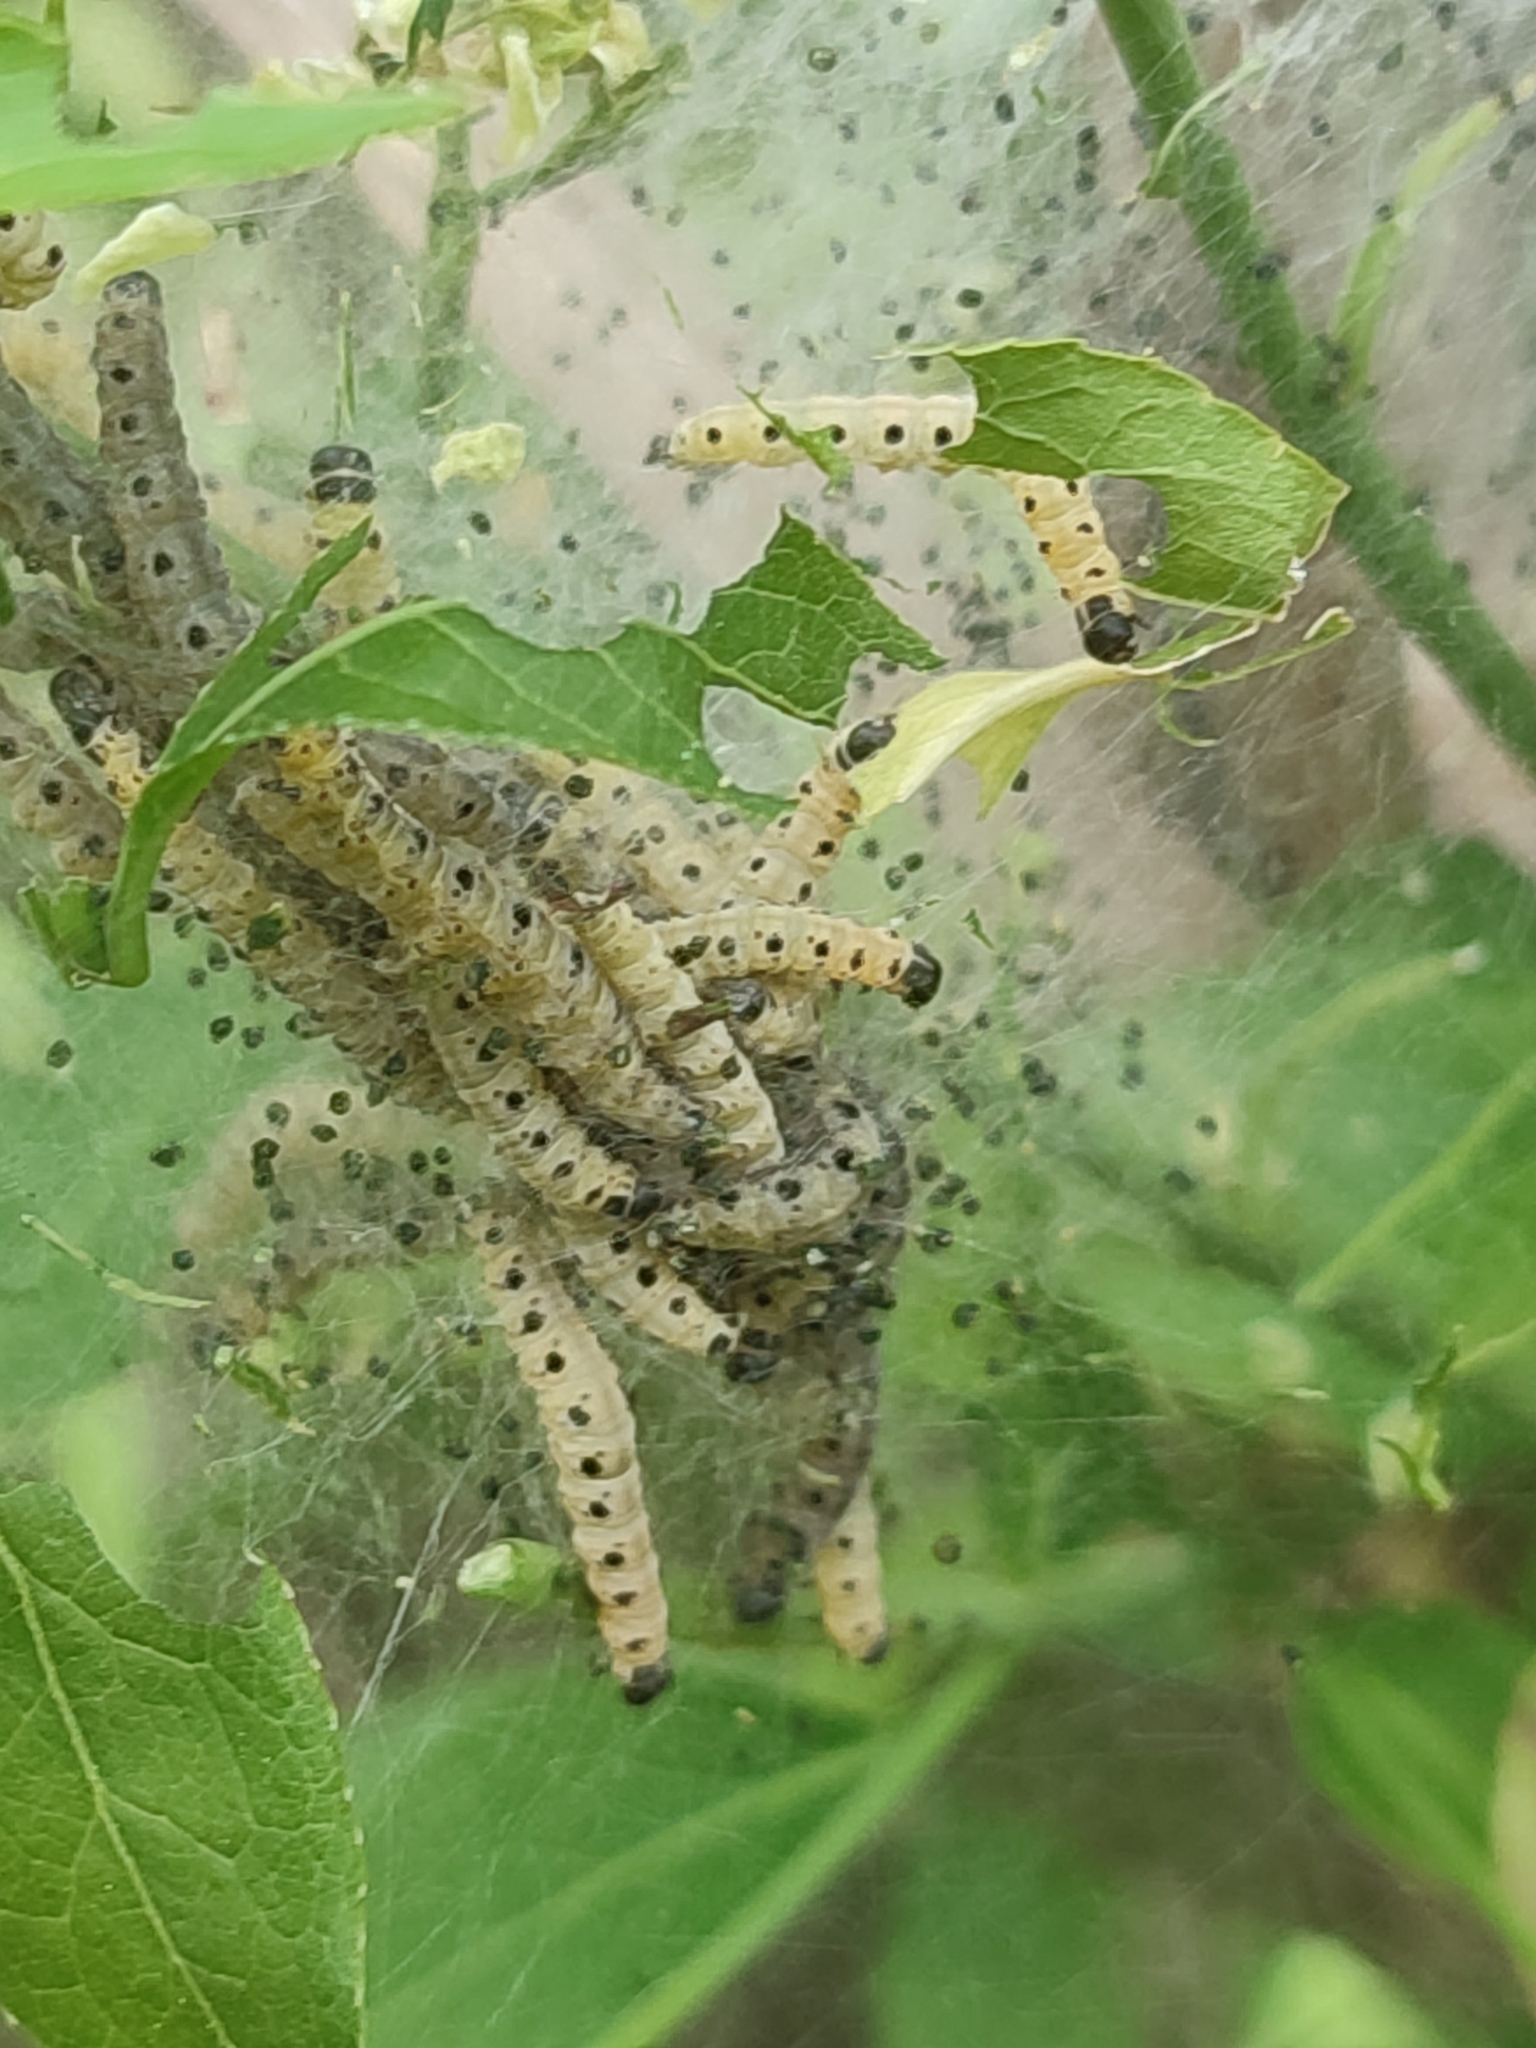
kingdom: Animalia
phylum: Arthropoda
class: Insecta
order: Lepidoptera
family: Yponomeutidae
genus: Yponomeuta
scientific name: Yponomeuta cagnagellus
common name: Spindle ermine
